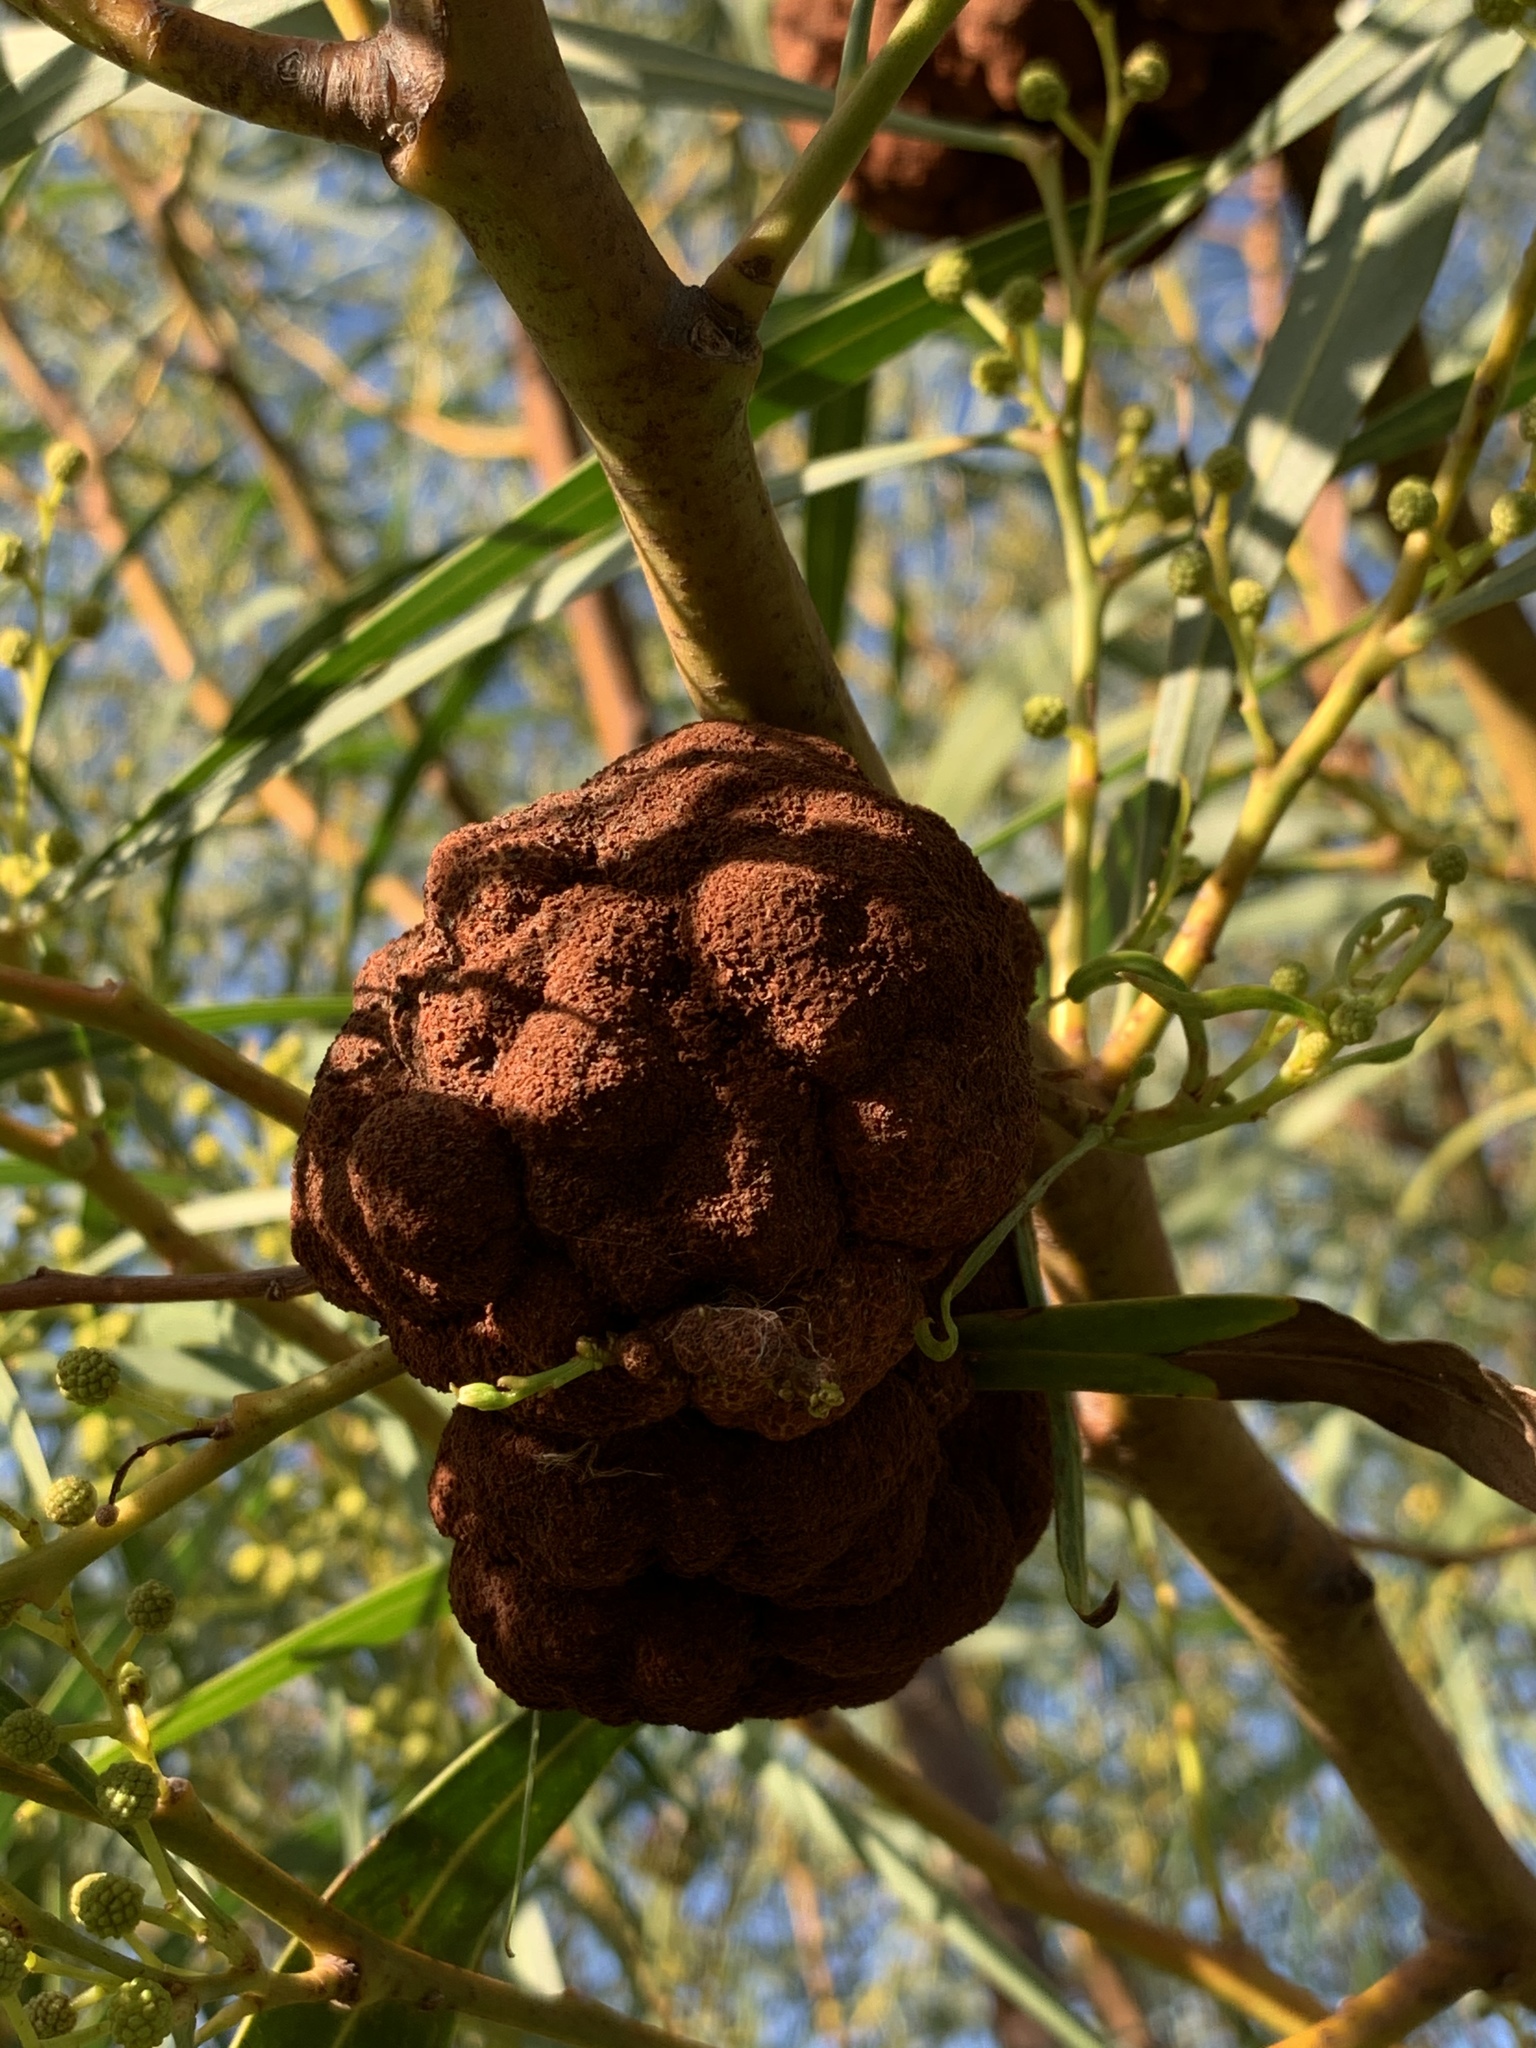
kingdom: Fungi
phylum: Basidiomycota
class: Pucciniomycetes
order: Pucciniales
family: Uromycladiaceae
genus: Uromycladium
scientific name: Uromycladium morrisii
